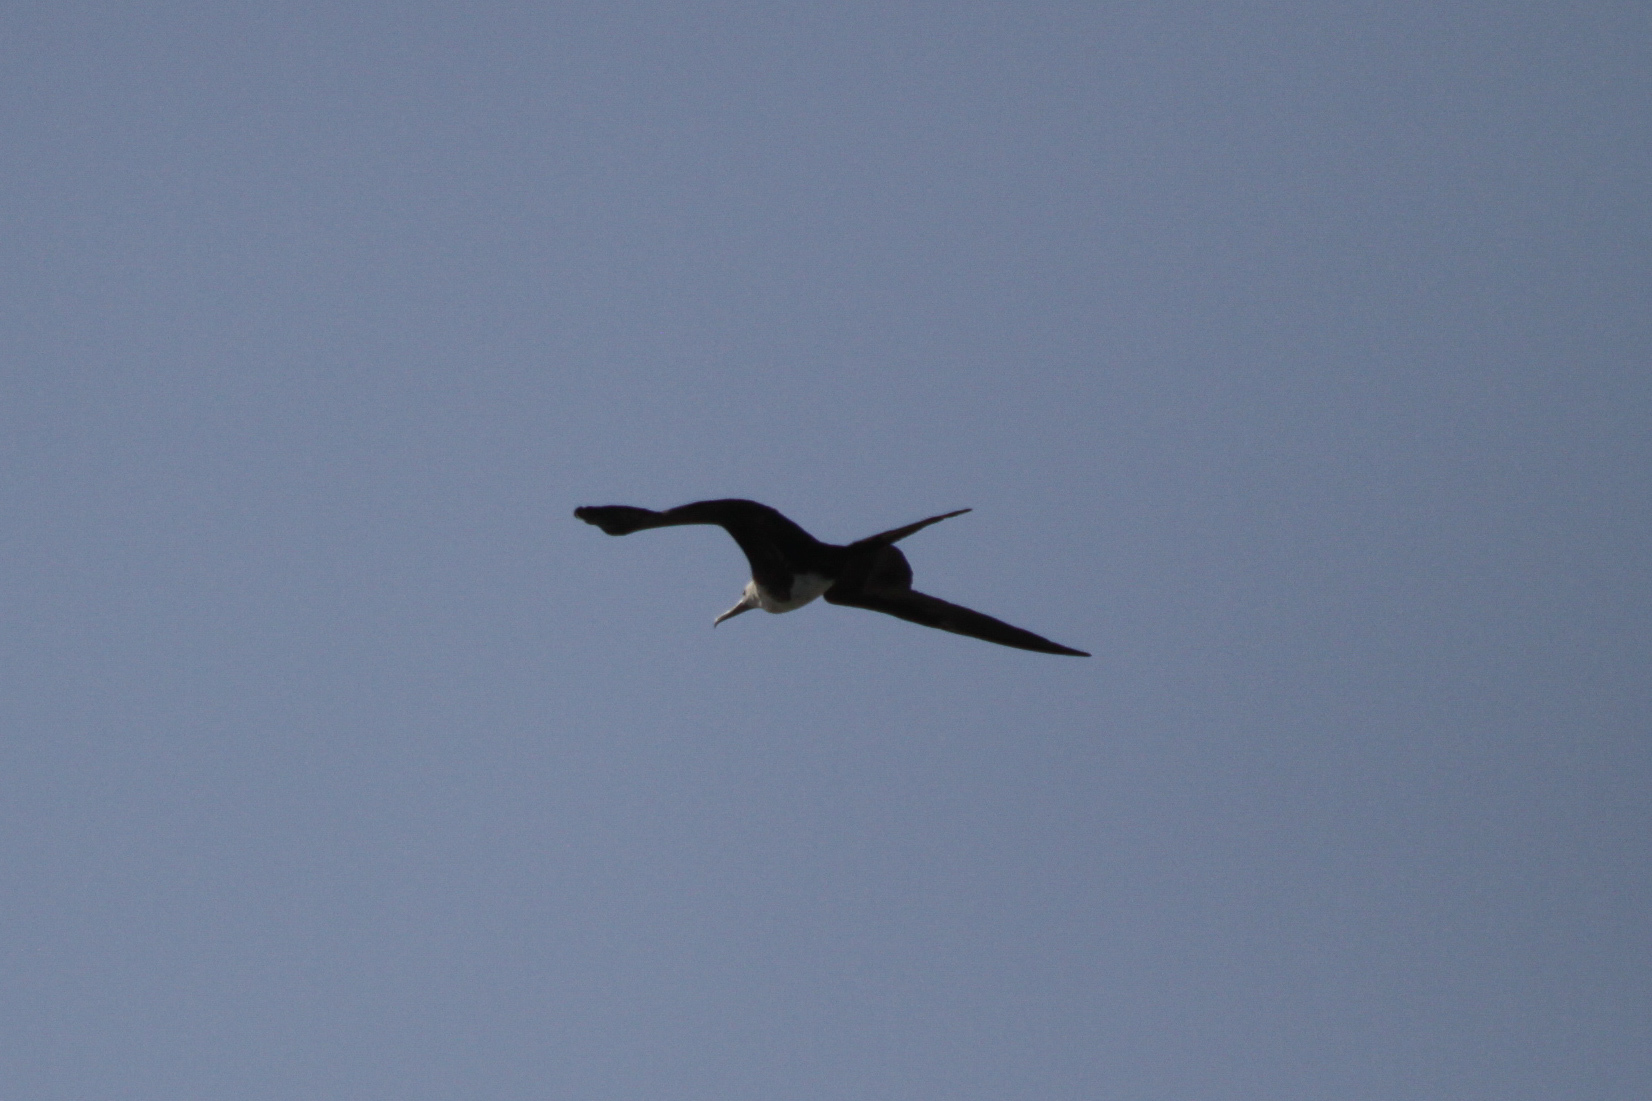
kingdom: Animalia
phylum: Chordata
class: Aves
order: Suliformes
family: Fregatidae
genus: Fregata
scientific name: Fregata magnificens
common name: Magnificent frigatebird
